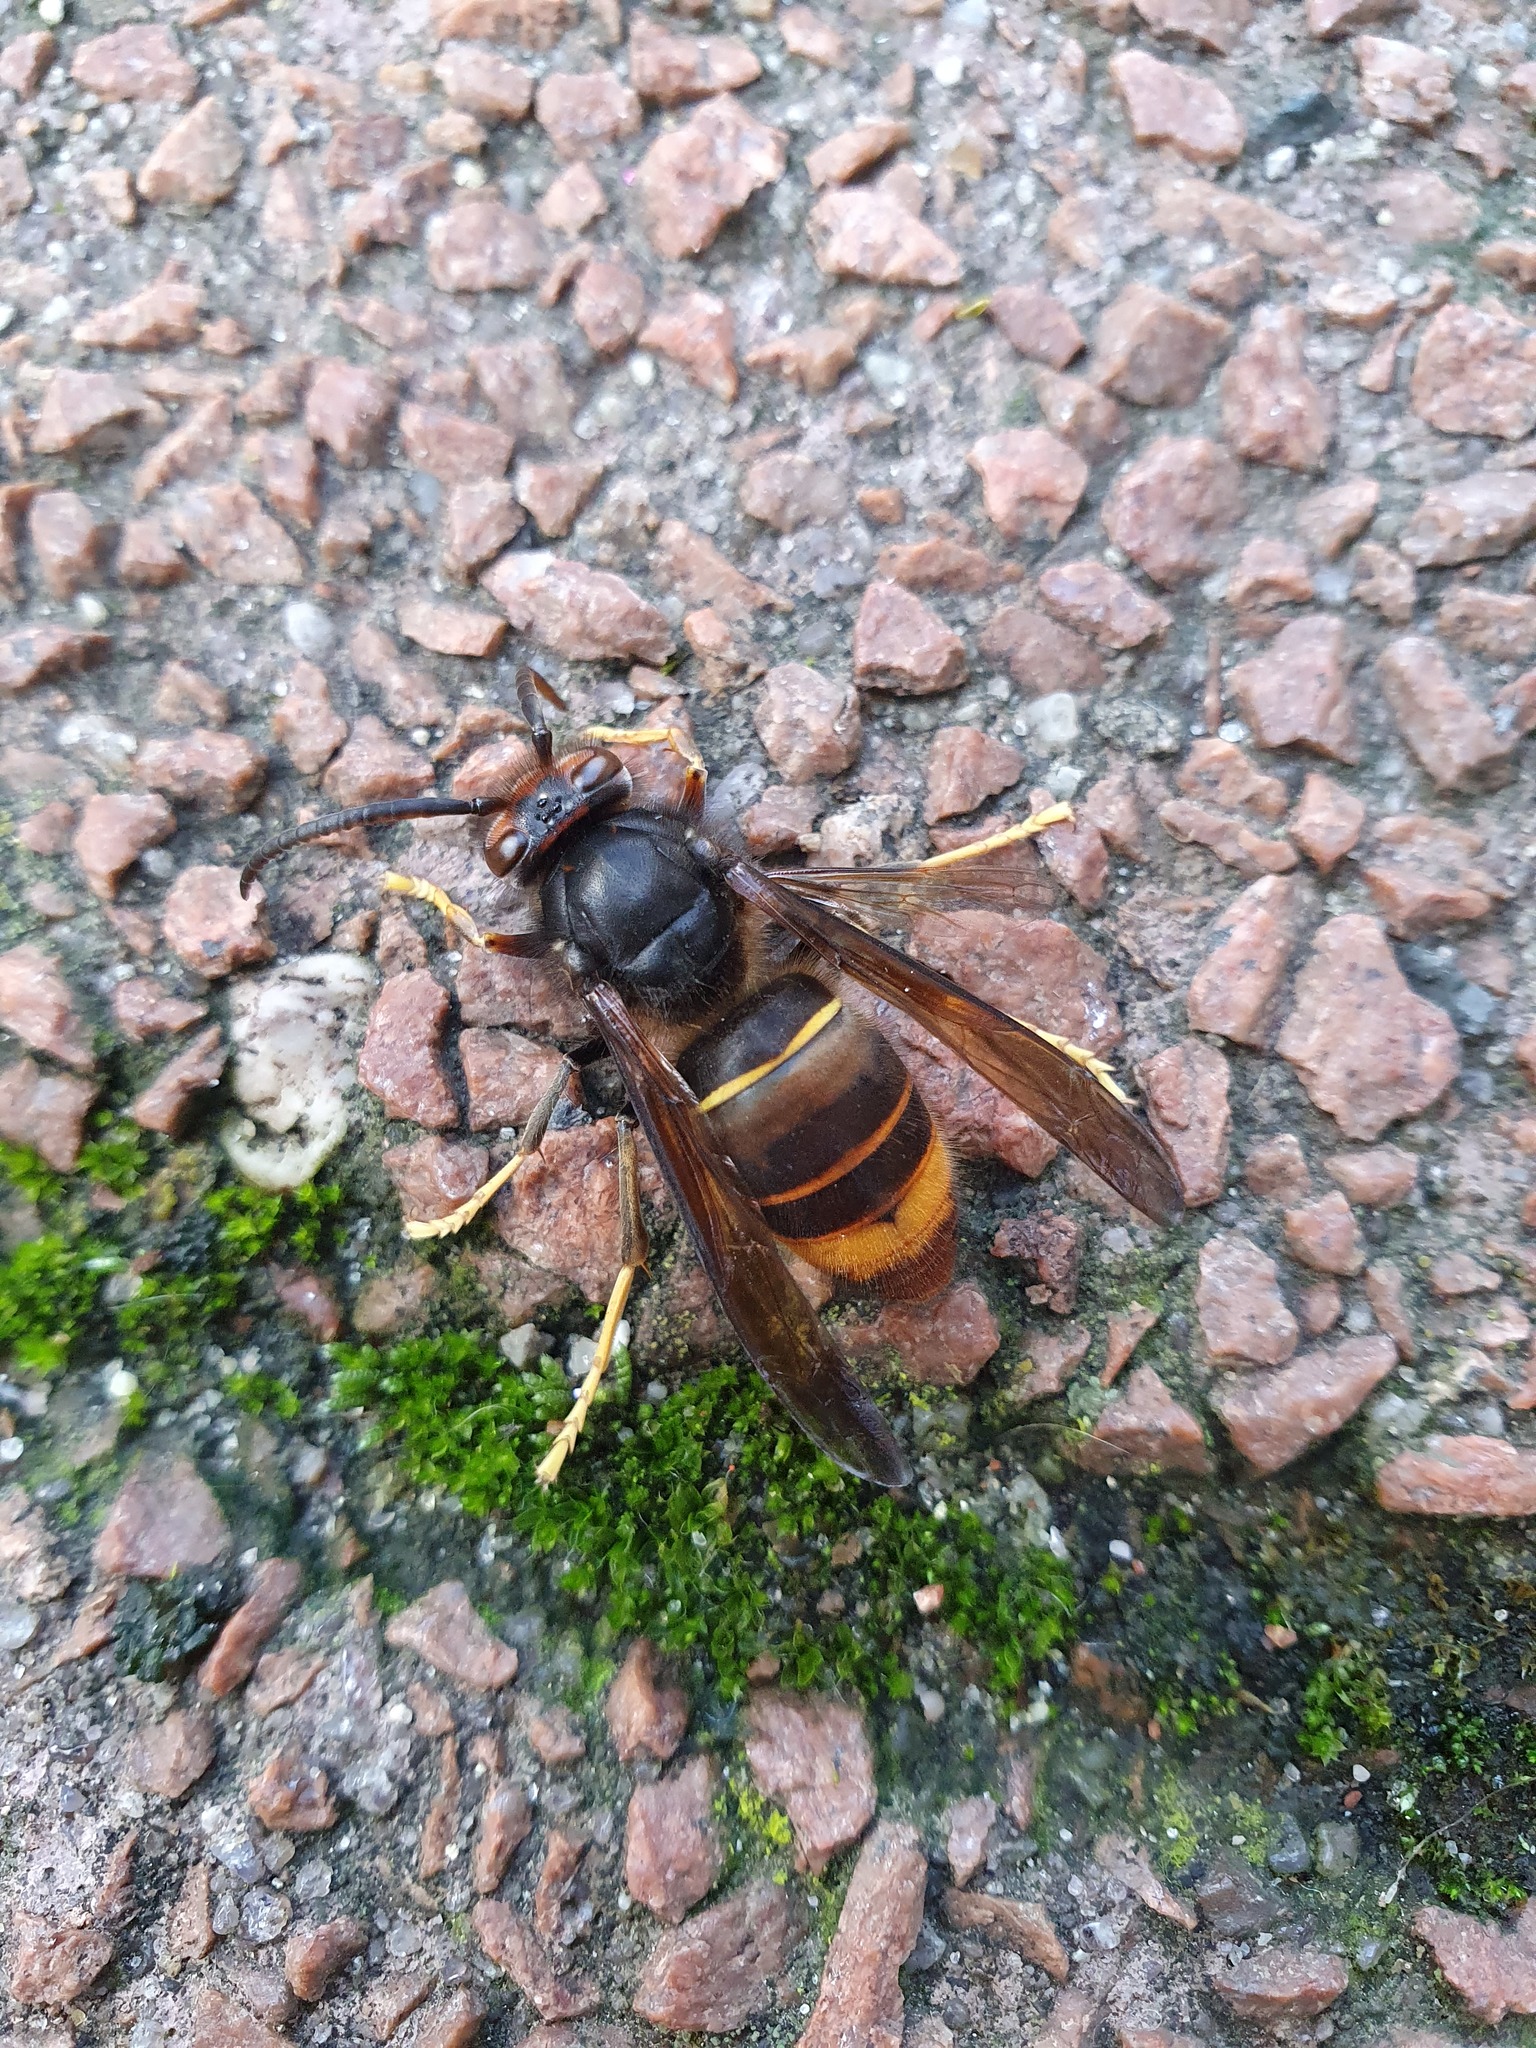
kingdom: Animalia
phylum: Arthropoda
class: Insecta
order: Hymenoptera
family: Vespidae
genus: Vespa
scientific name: Vespa velutina
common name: Asian hornet
